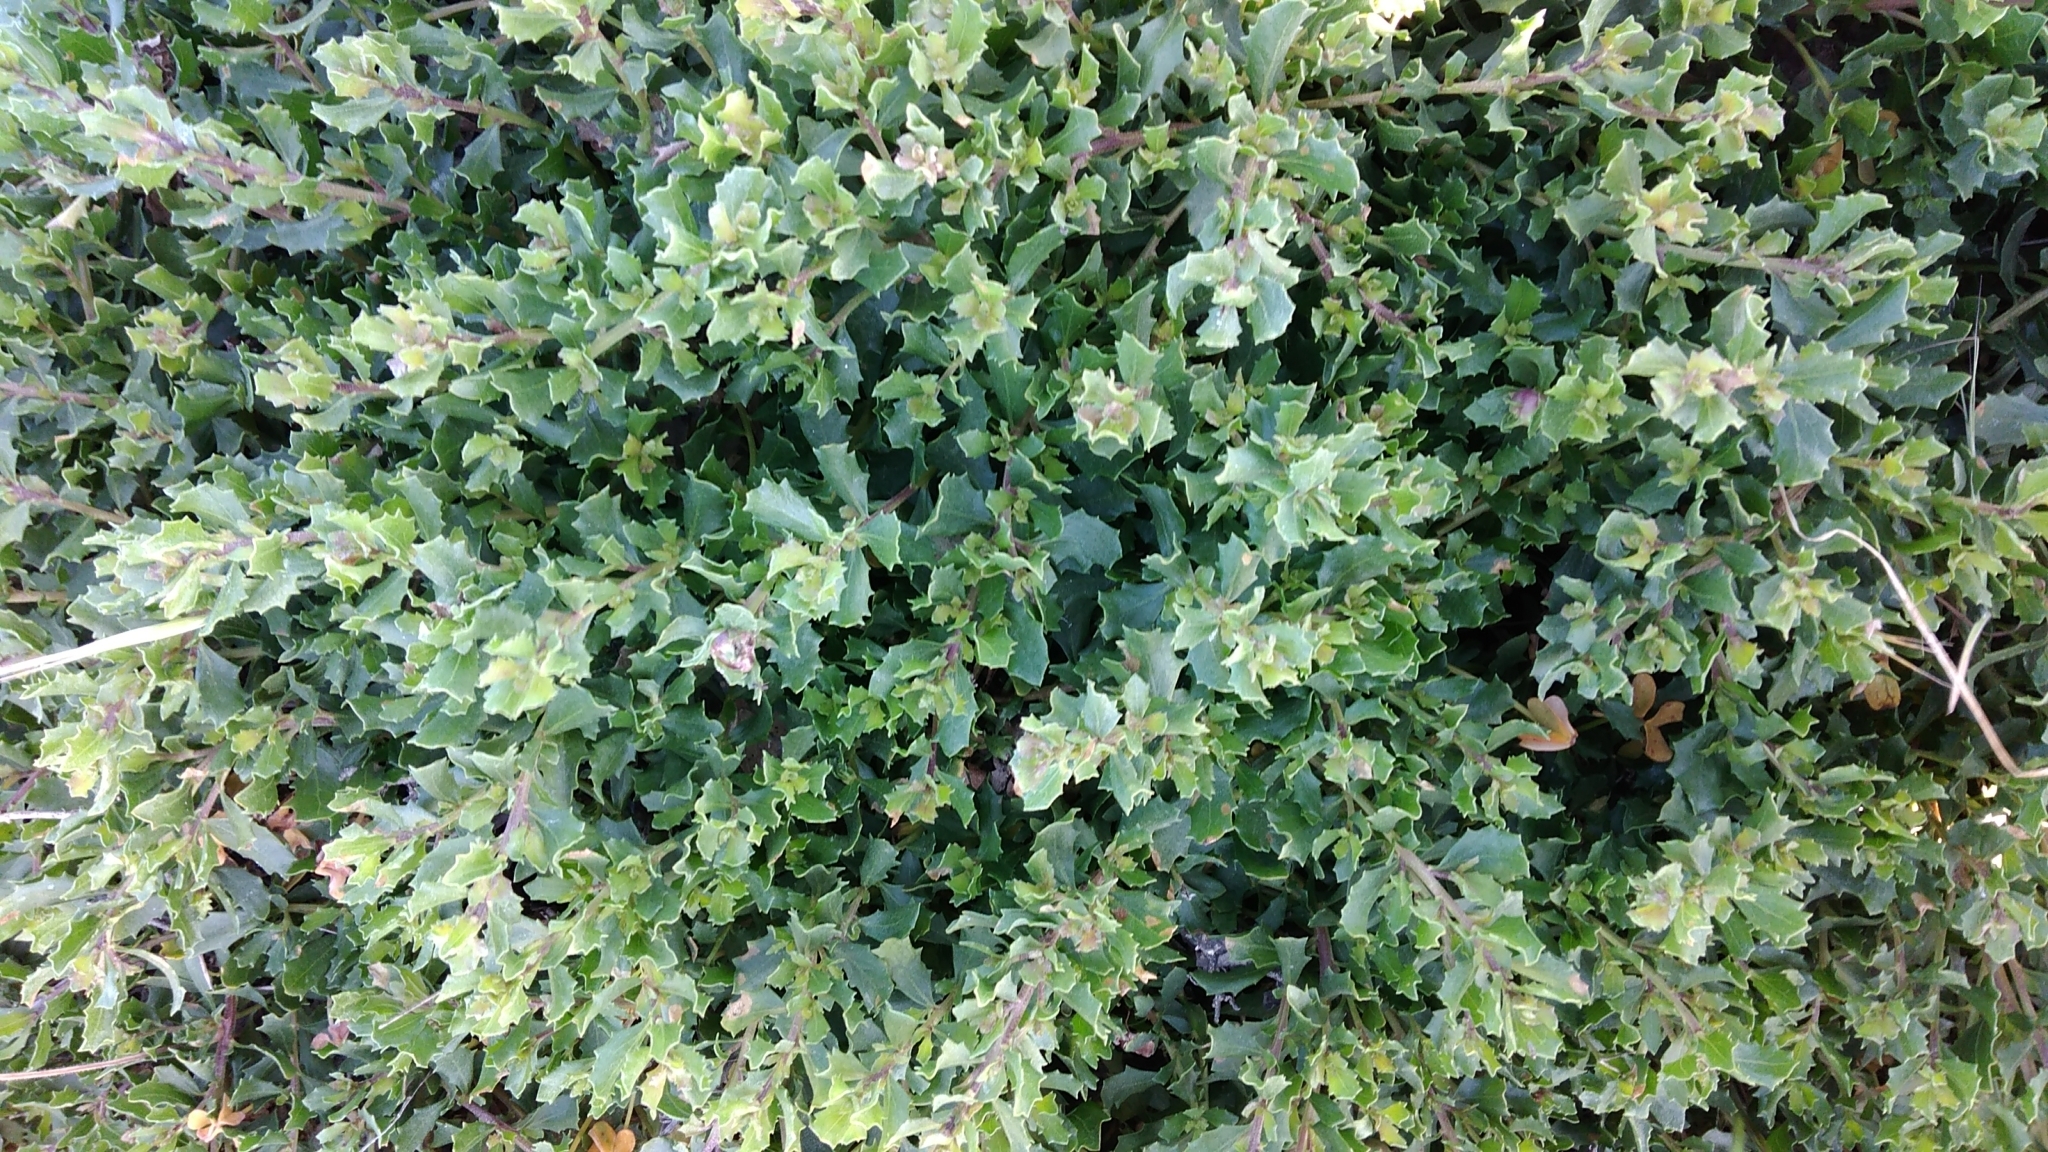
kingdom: Plantae
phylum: Tracheophyta
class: Magnoliopsida
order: Asterales
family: Asteraceae
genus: Baccharis
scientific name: Baccharis pilularis
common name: Coyotebrush
